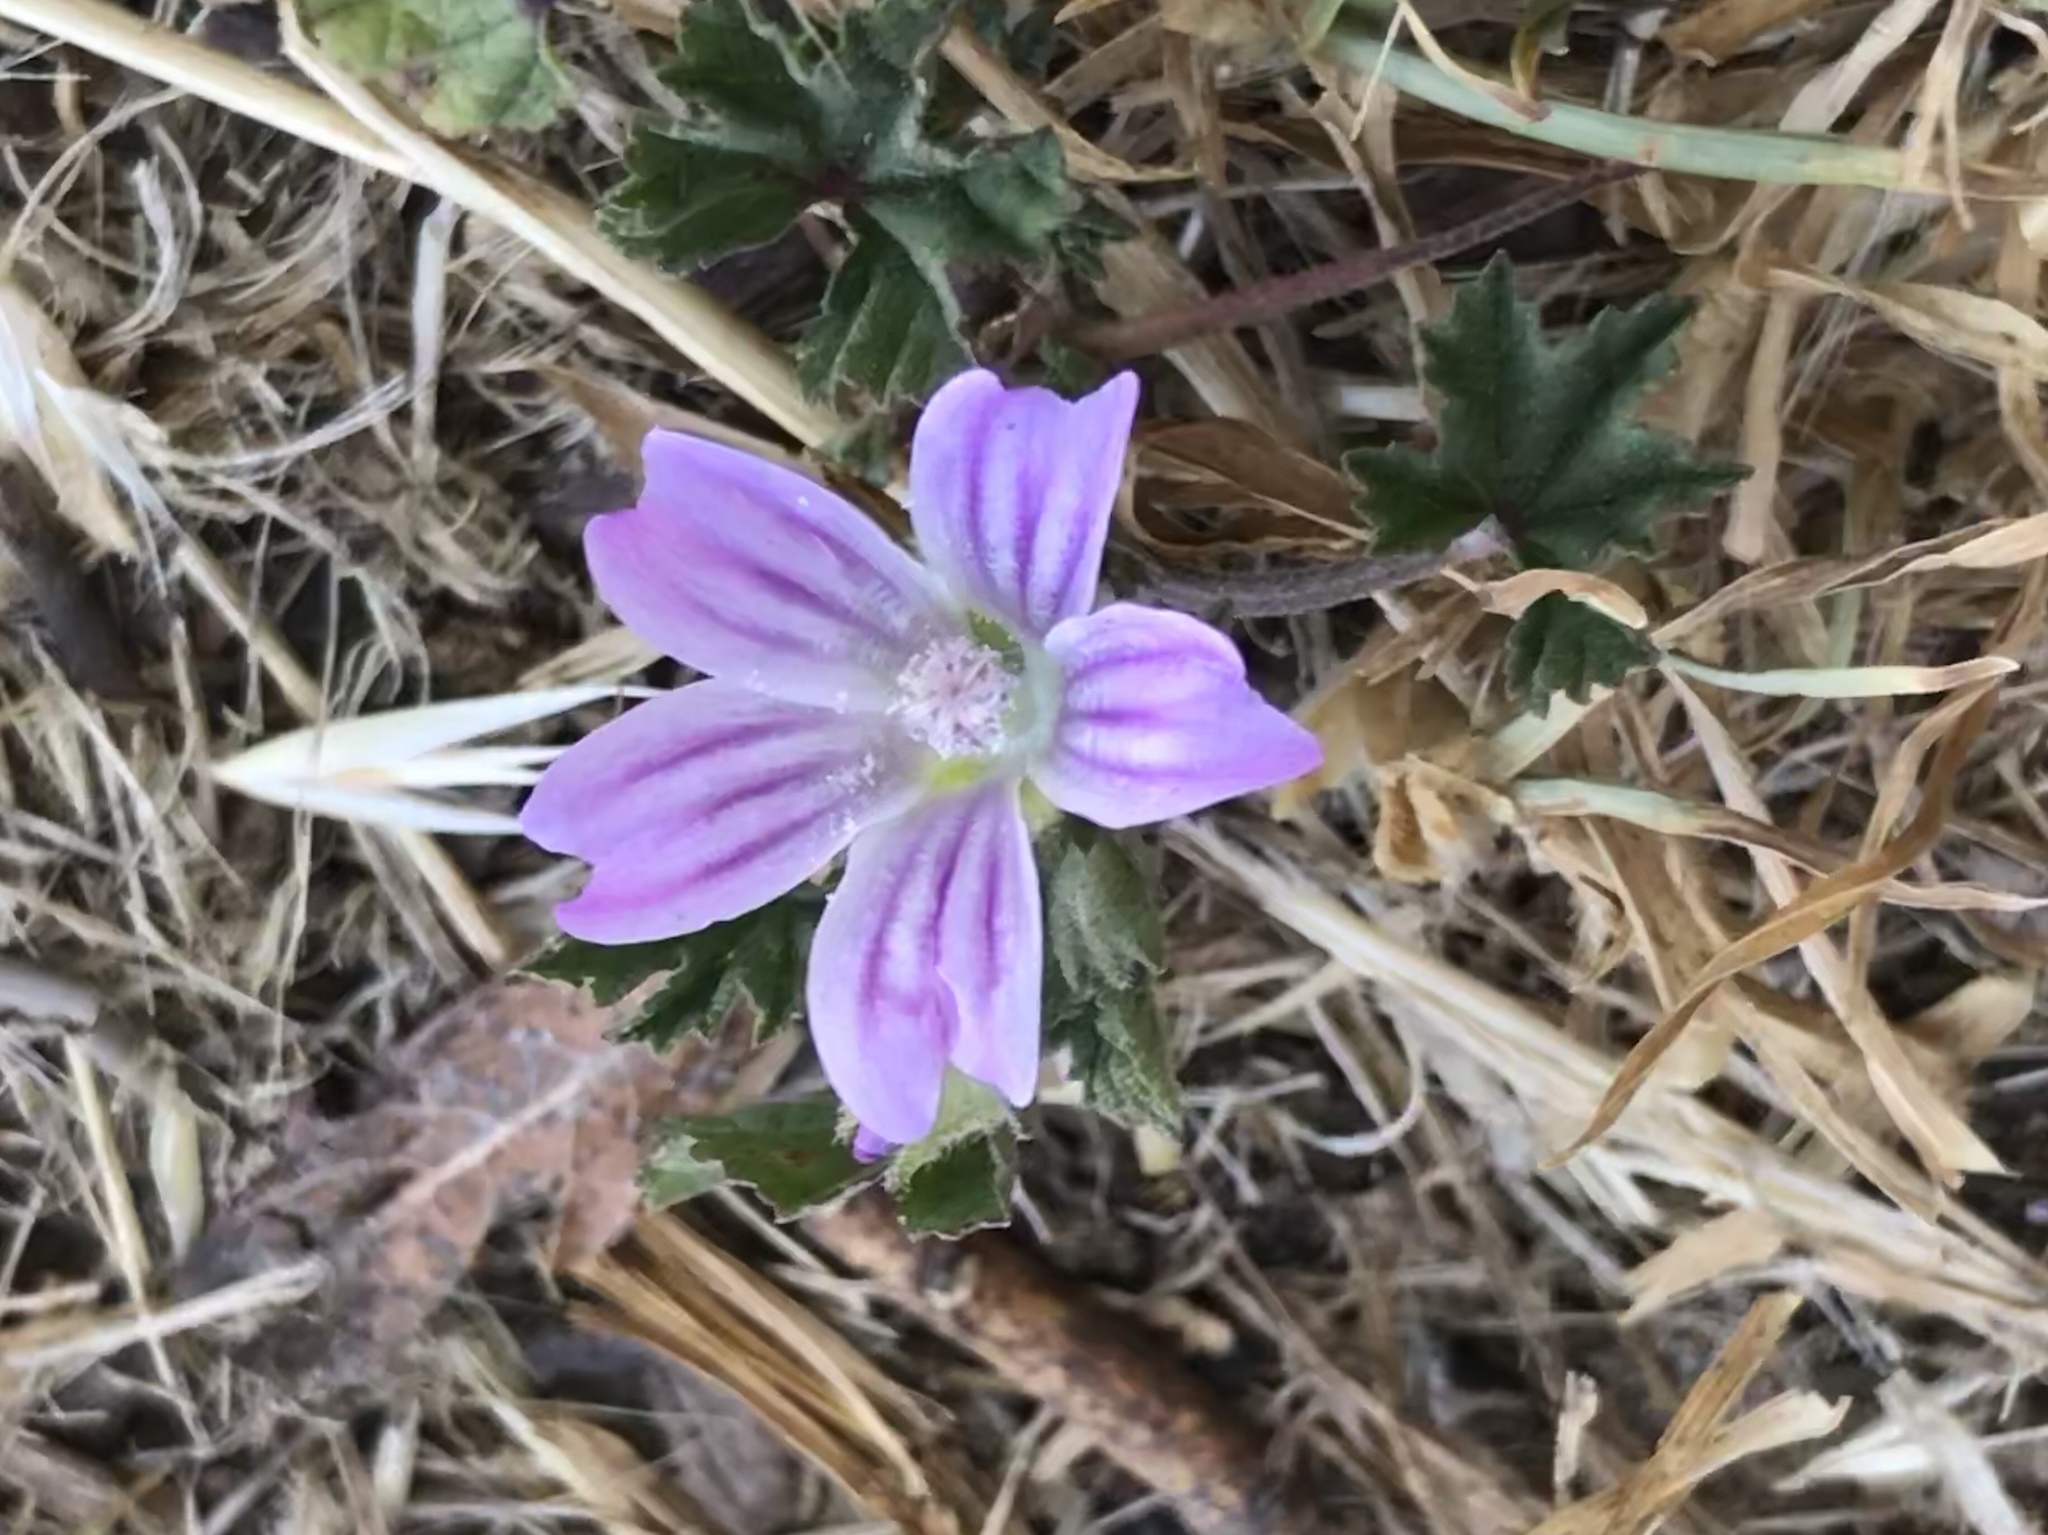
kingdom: Plantae
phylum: Tracheophyta
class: Magnoliopsida
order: Malvales
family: Malvaceae
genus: Malva
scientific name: Malva
